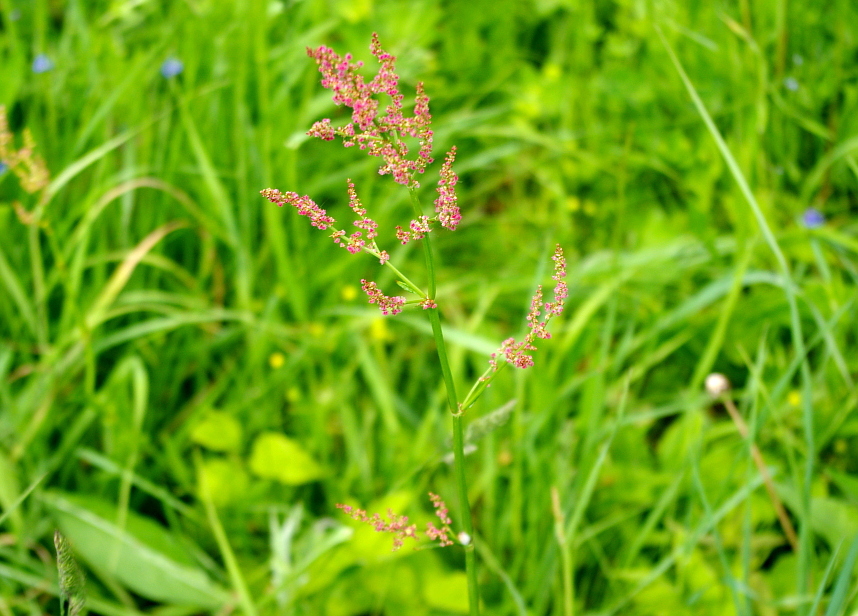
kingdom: Plantae
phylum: Tracheophyta
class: Magnoliopsida
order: Caryophyllales
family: Polygonaceae
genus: Rumex
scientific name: Rumex thyrsiflorus
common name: Garden sorrel
